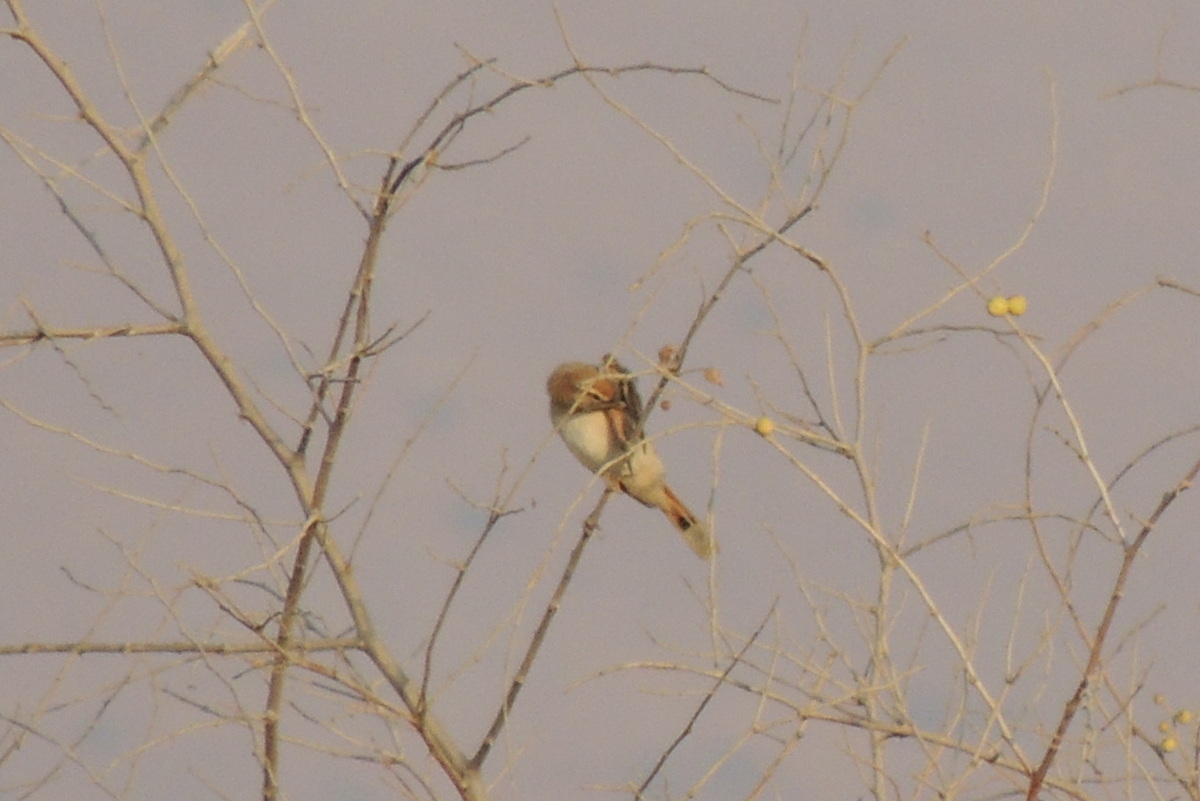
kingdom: Animalia
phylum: Chordata
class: Aves
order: Passeriformes
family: Muscicapidae
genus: Erythropygia
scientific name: Erythropygia galactotes
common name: Rufous-tailed scrub robin
